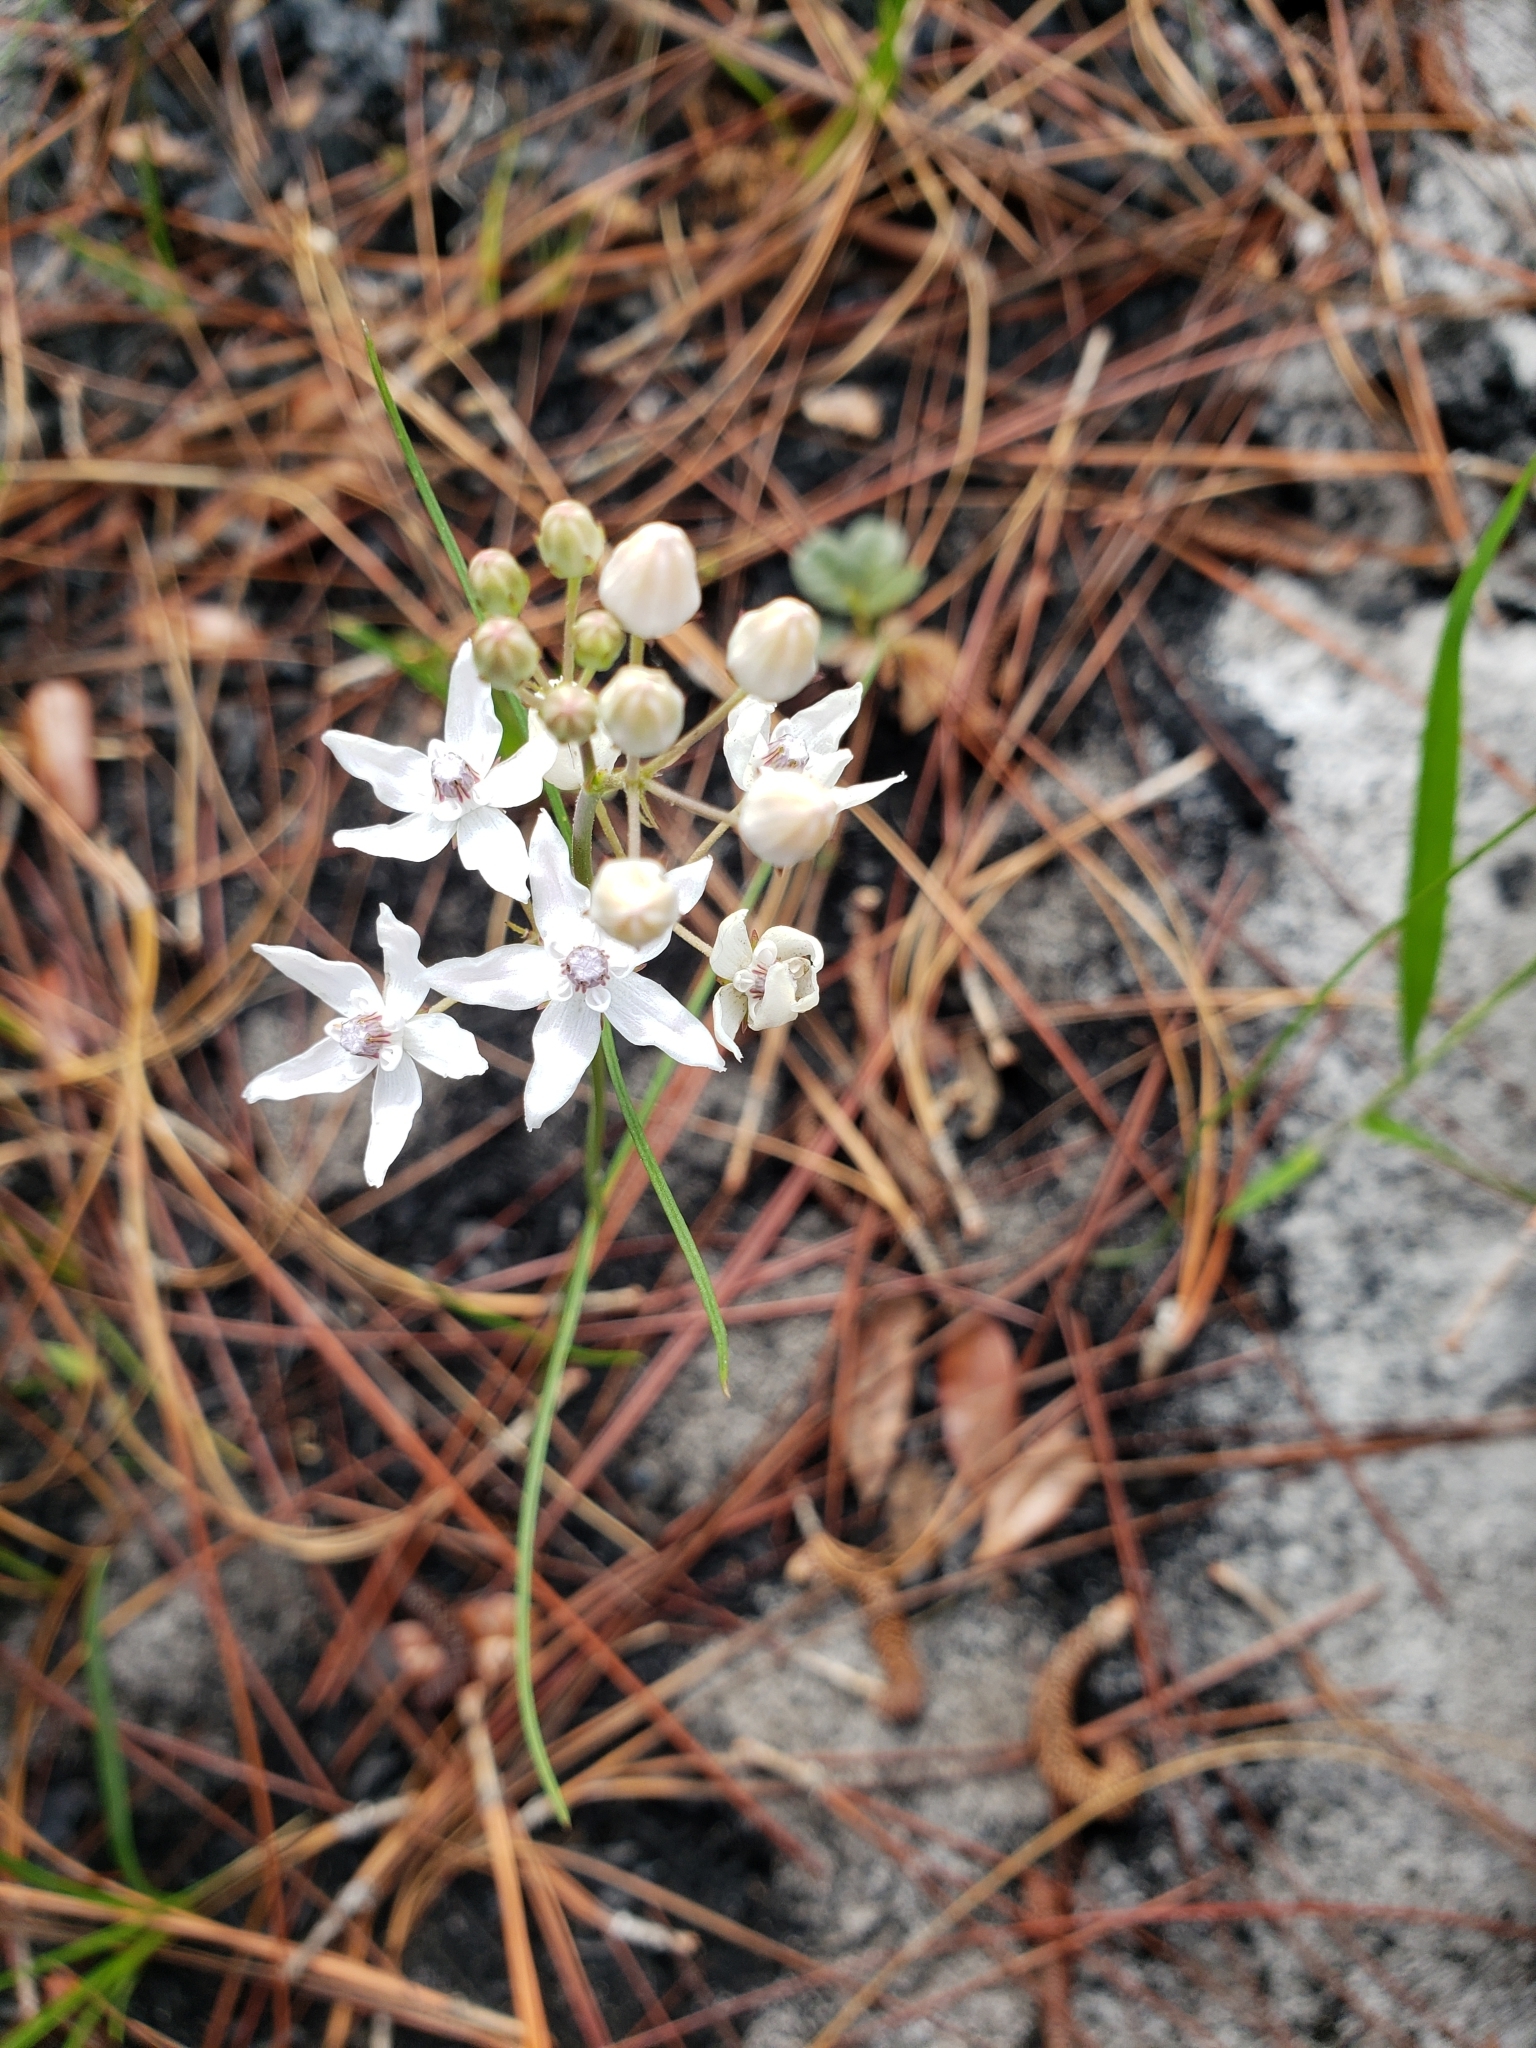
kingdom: Plantae
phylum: Tracheophyta
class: Magnoliopsida
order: Gentianales
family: Apocynaceae
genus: Asclepias
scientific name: Asclepias feayi
